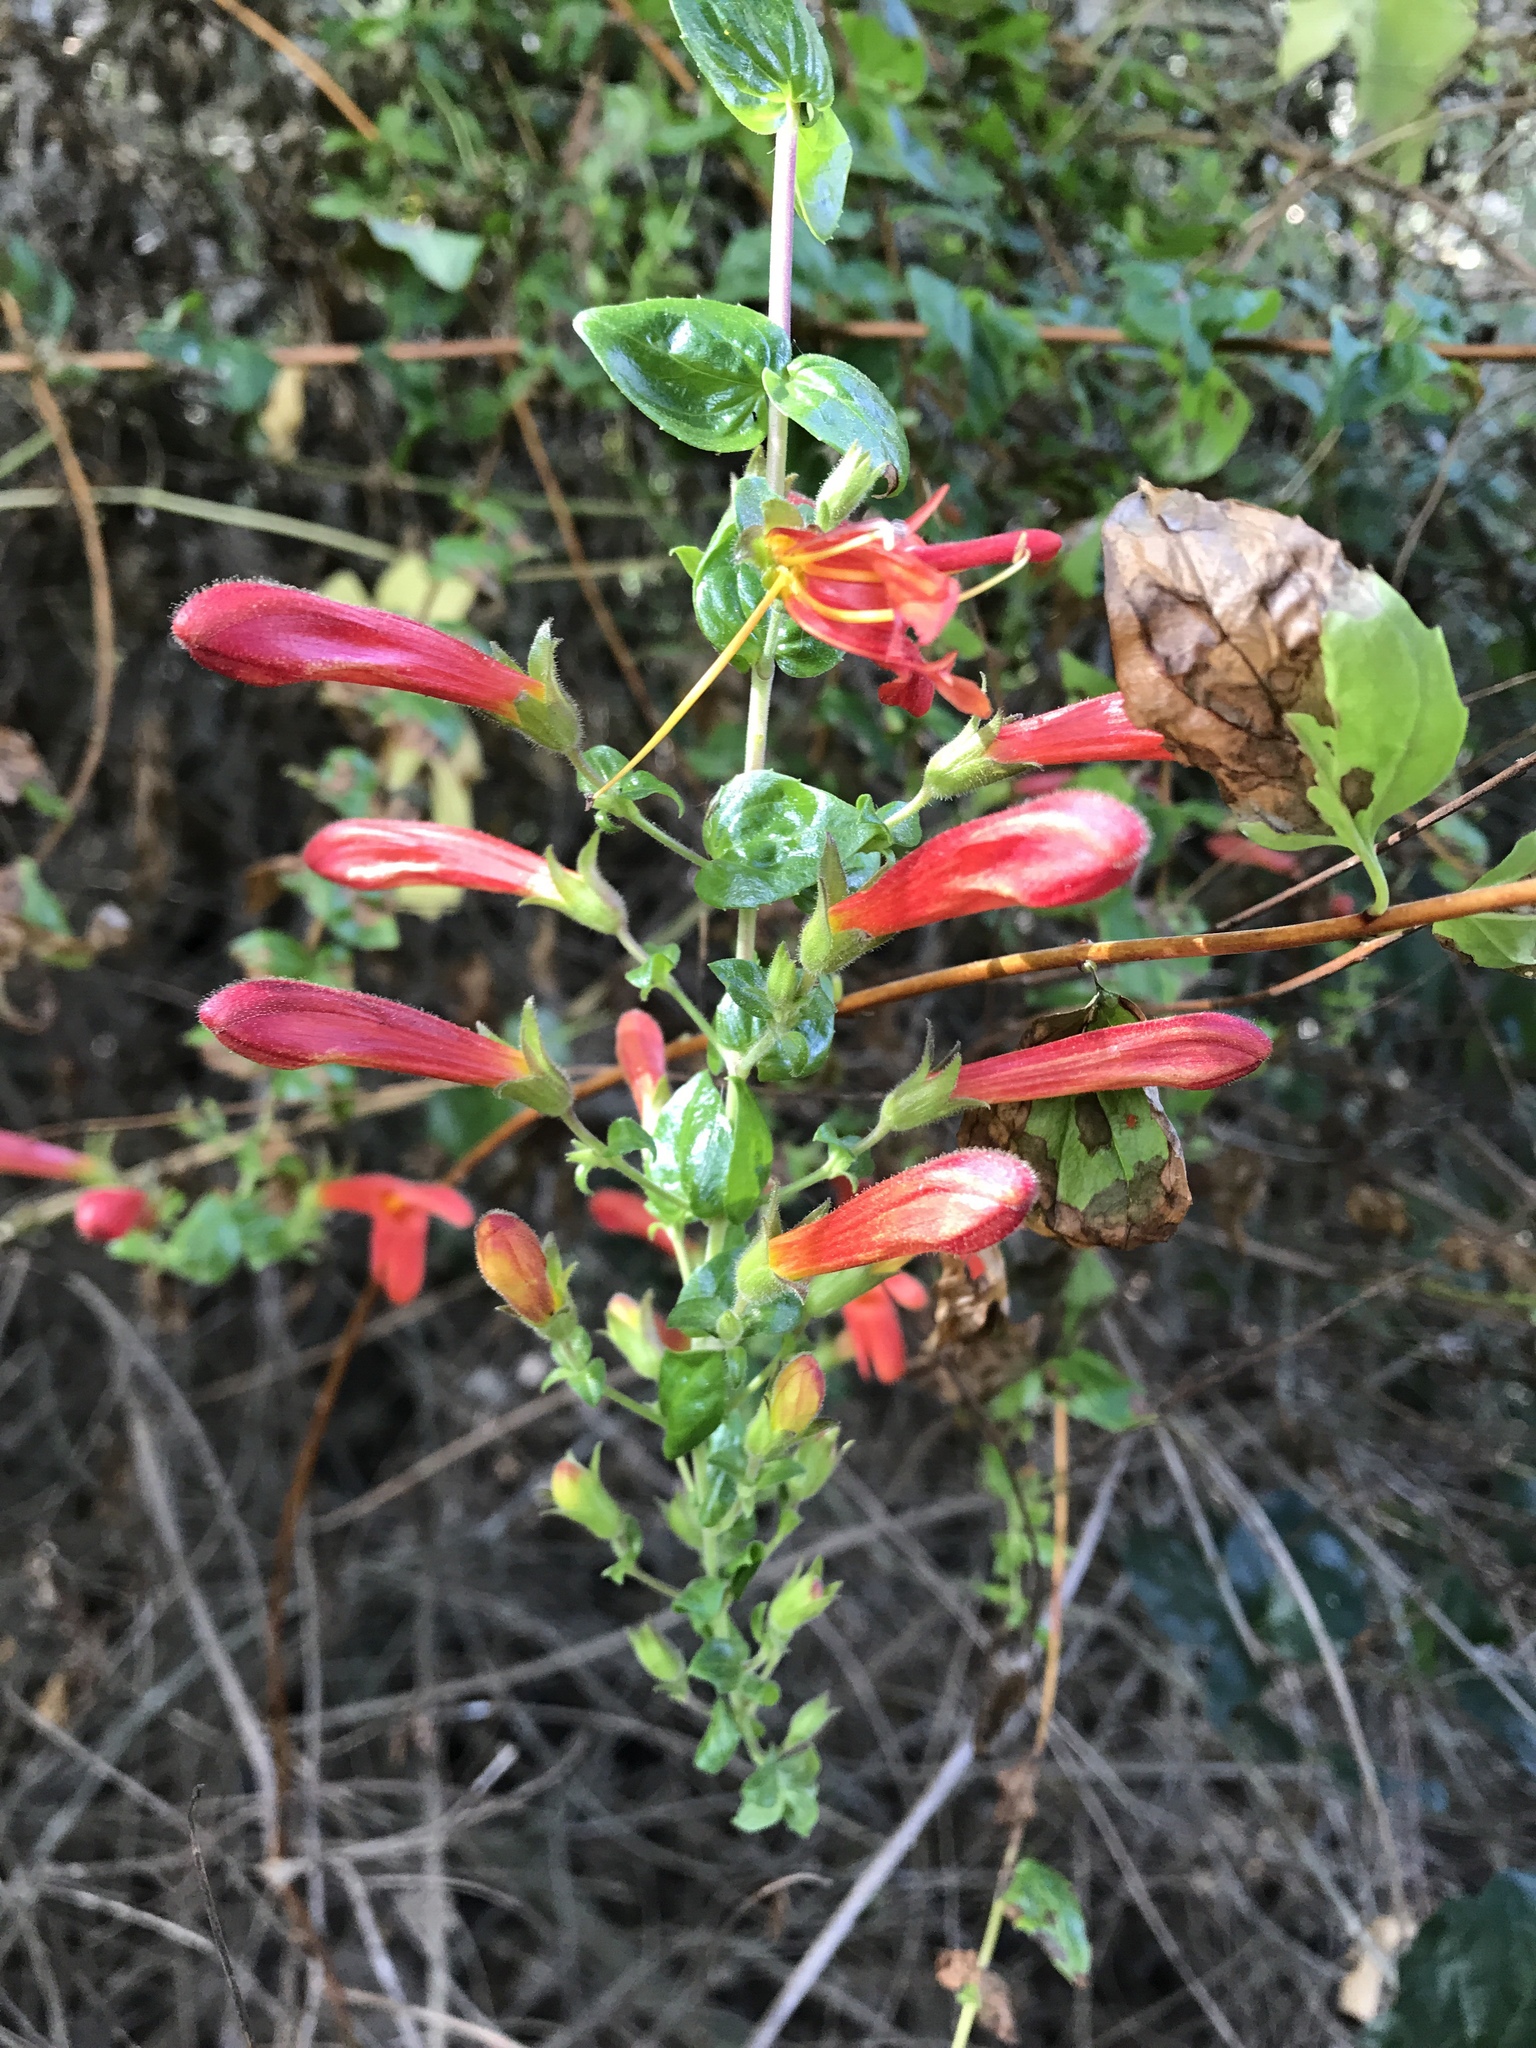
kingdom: Plantae
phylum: Tracheophyta
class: Magnoliopsida
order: Lamiales
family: Plantaginaceae
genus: Keckiella
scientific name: Keckiella cordifolia
